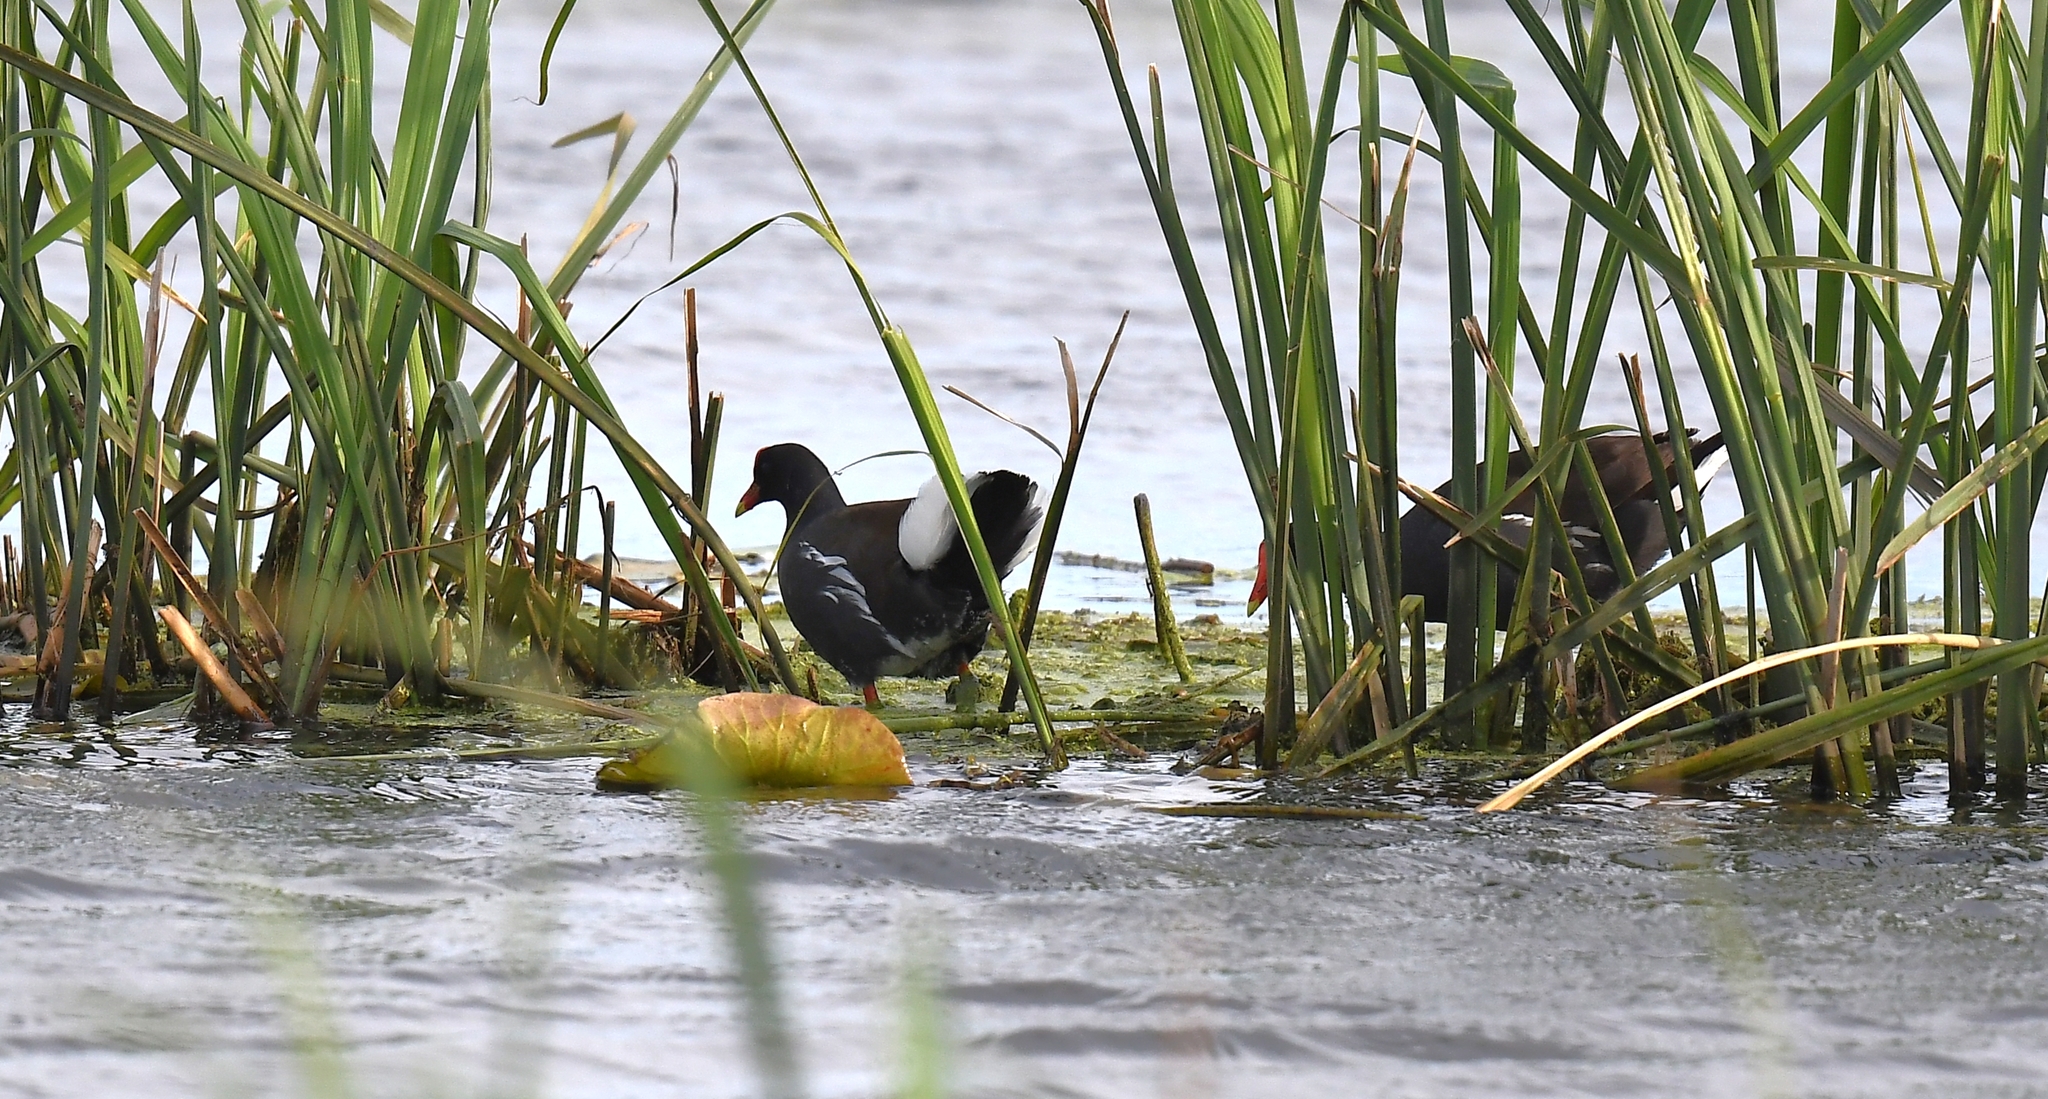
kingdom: Animalia
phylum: Chordata
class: Aves
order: Gruiformes
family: Rallidae
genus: Gallinula
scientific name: Gallinula chloropus
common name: Common moorhen
